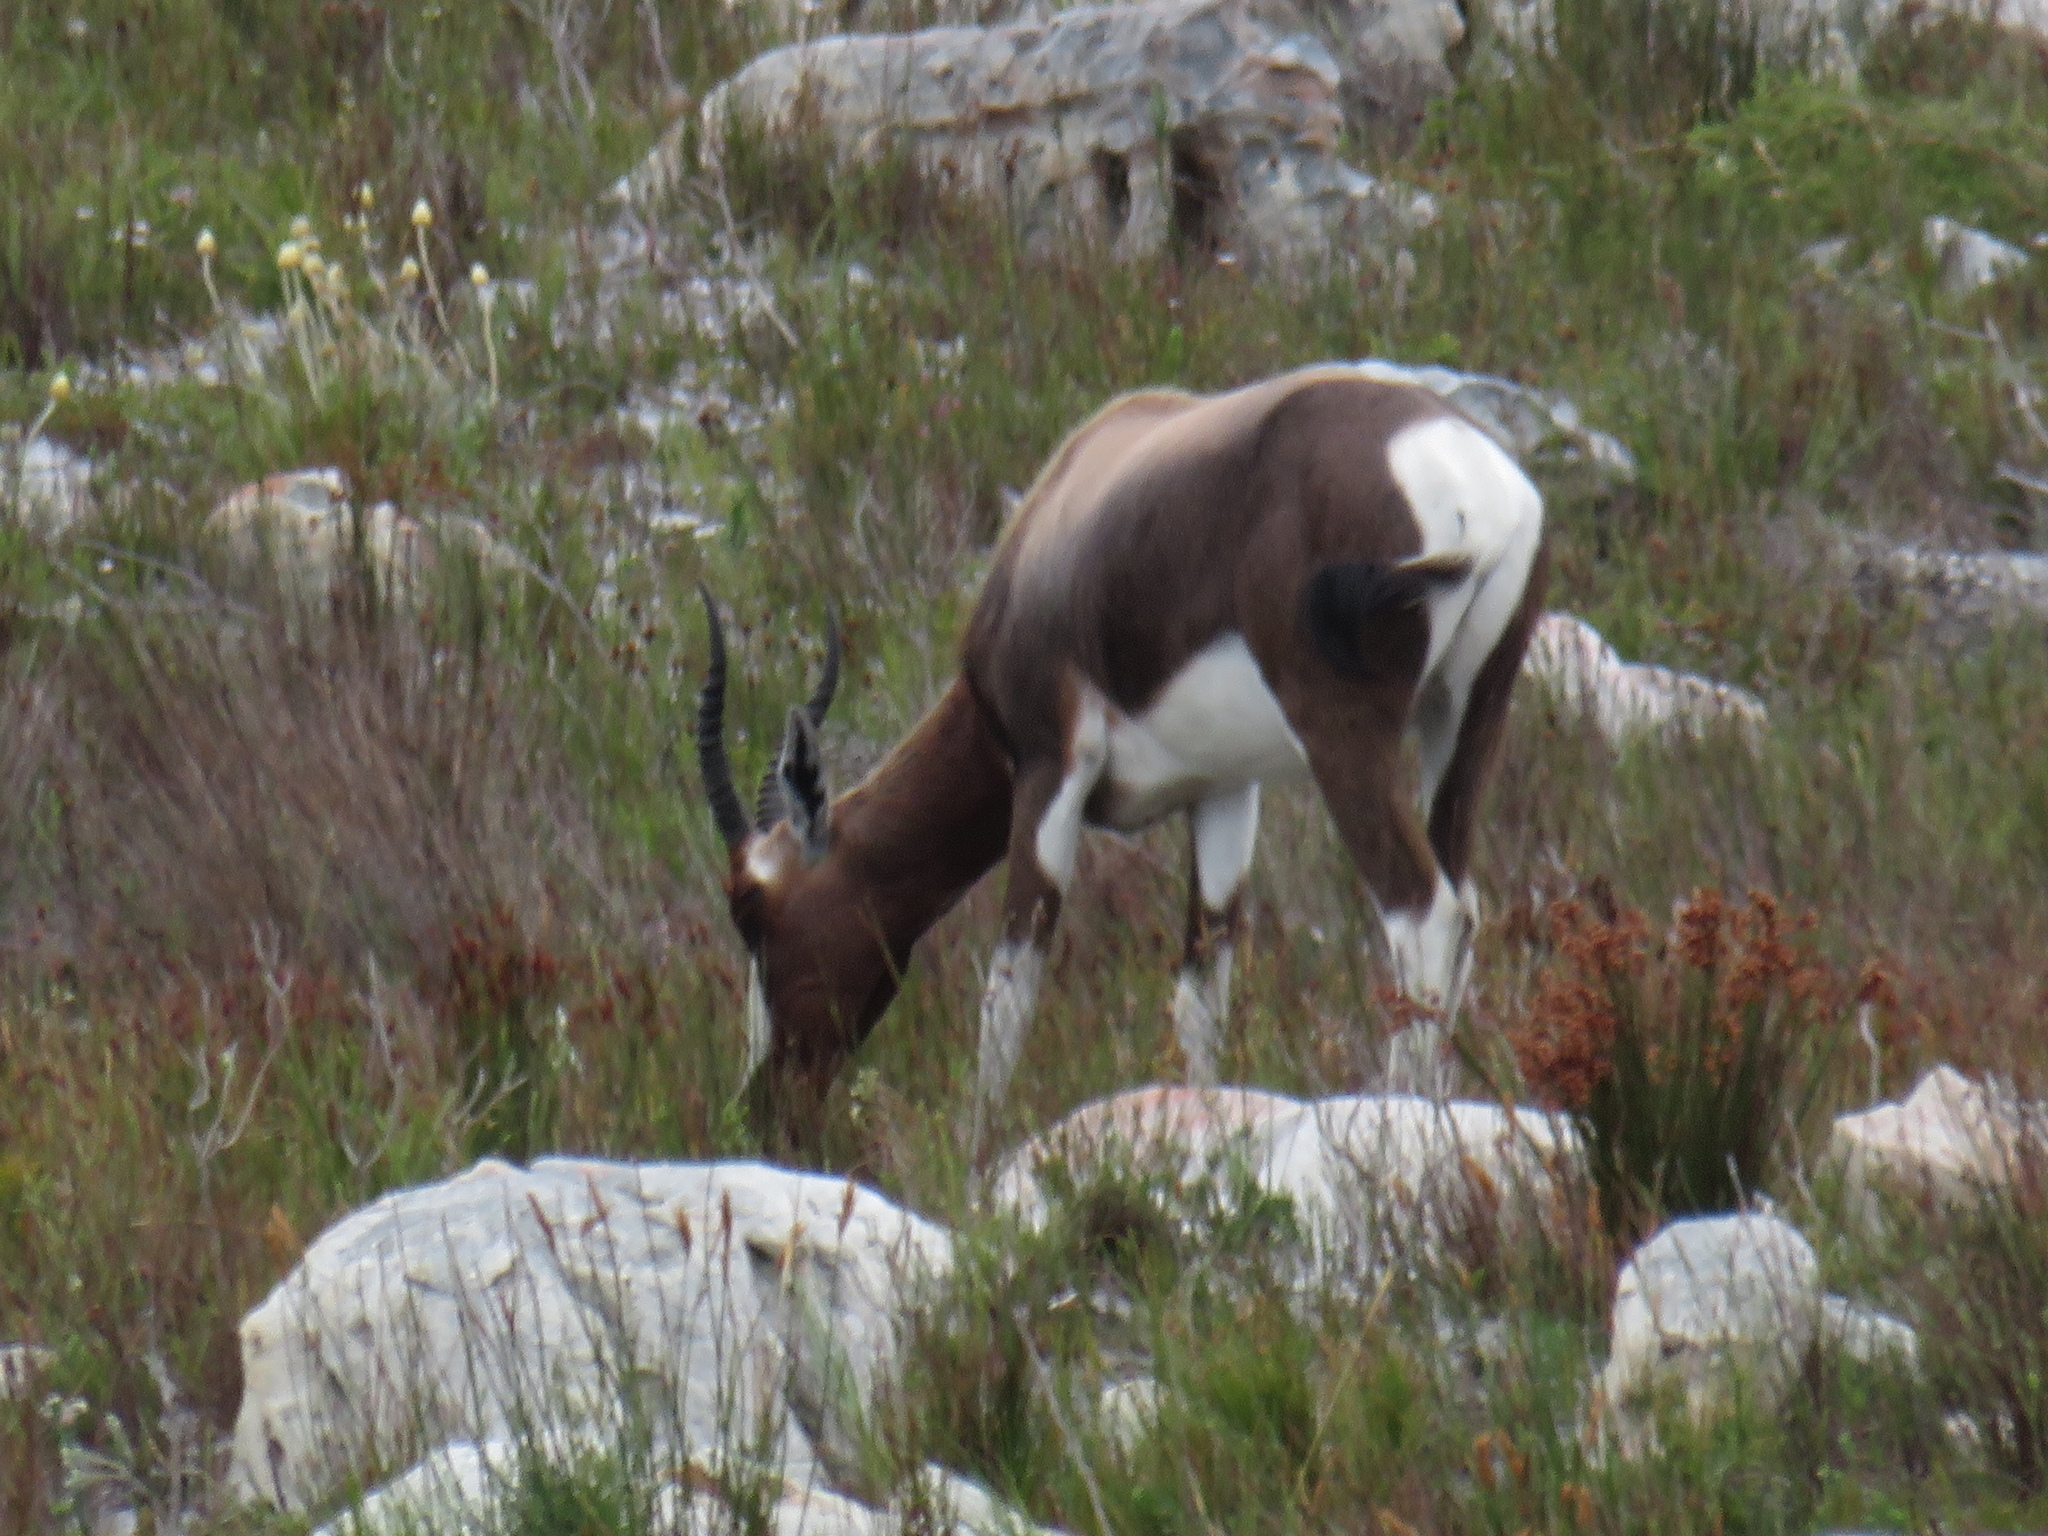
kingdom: Animalia
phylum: Chordata
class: Mammalia
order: Artiodactyla
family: Bovidae
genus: Damaliscus
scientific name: Damaliscus pygargus
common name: Bontebok
